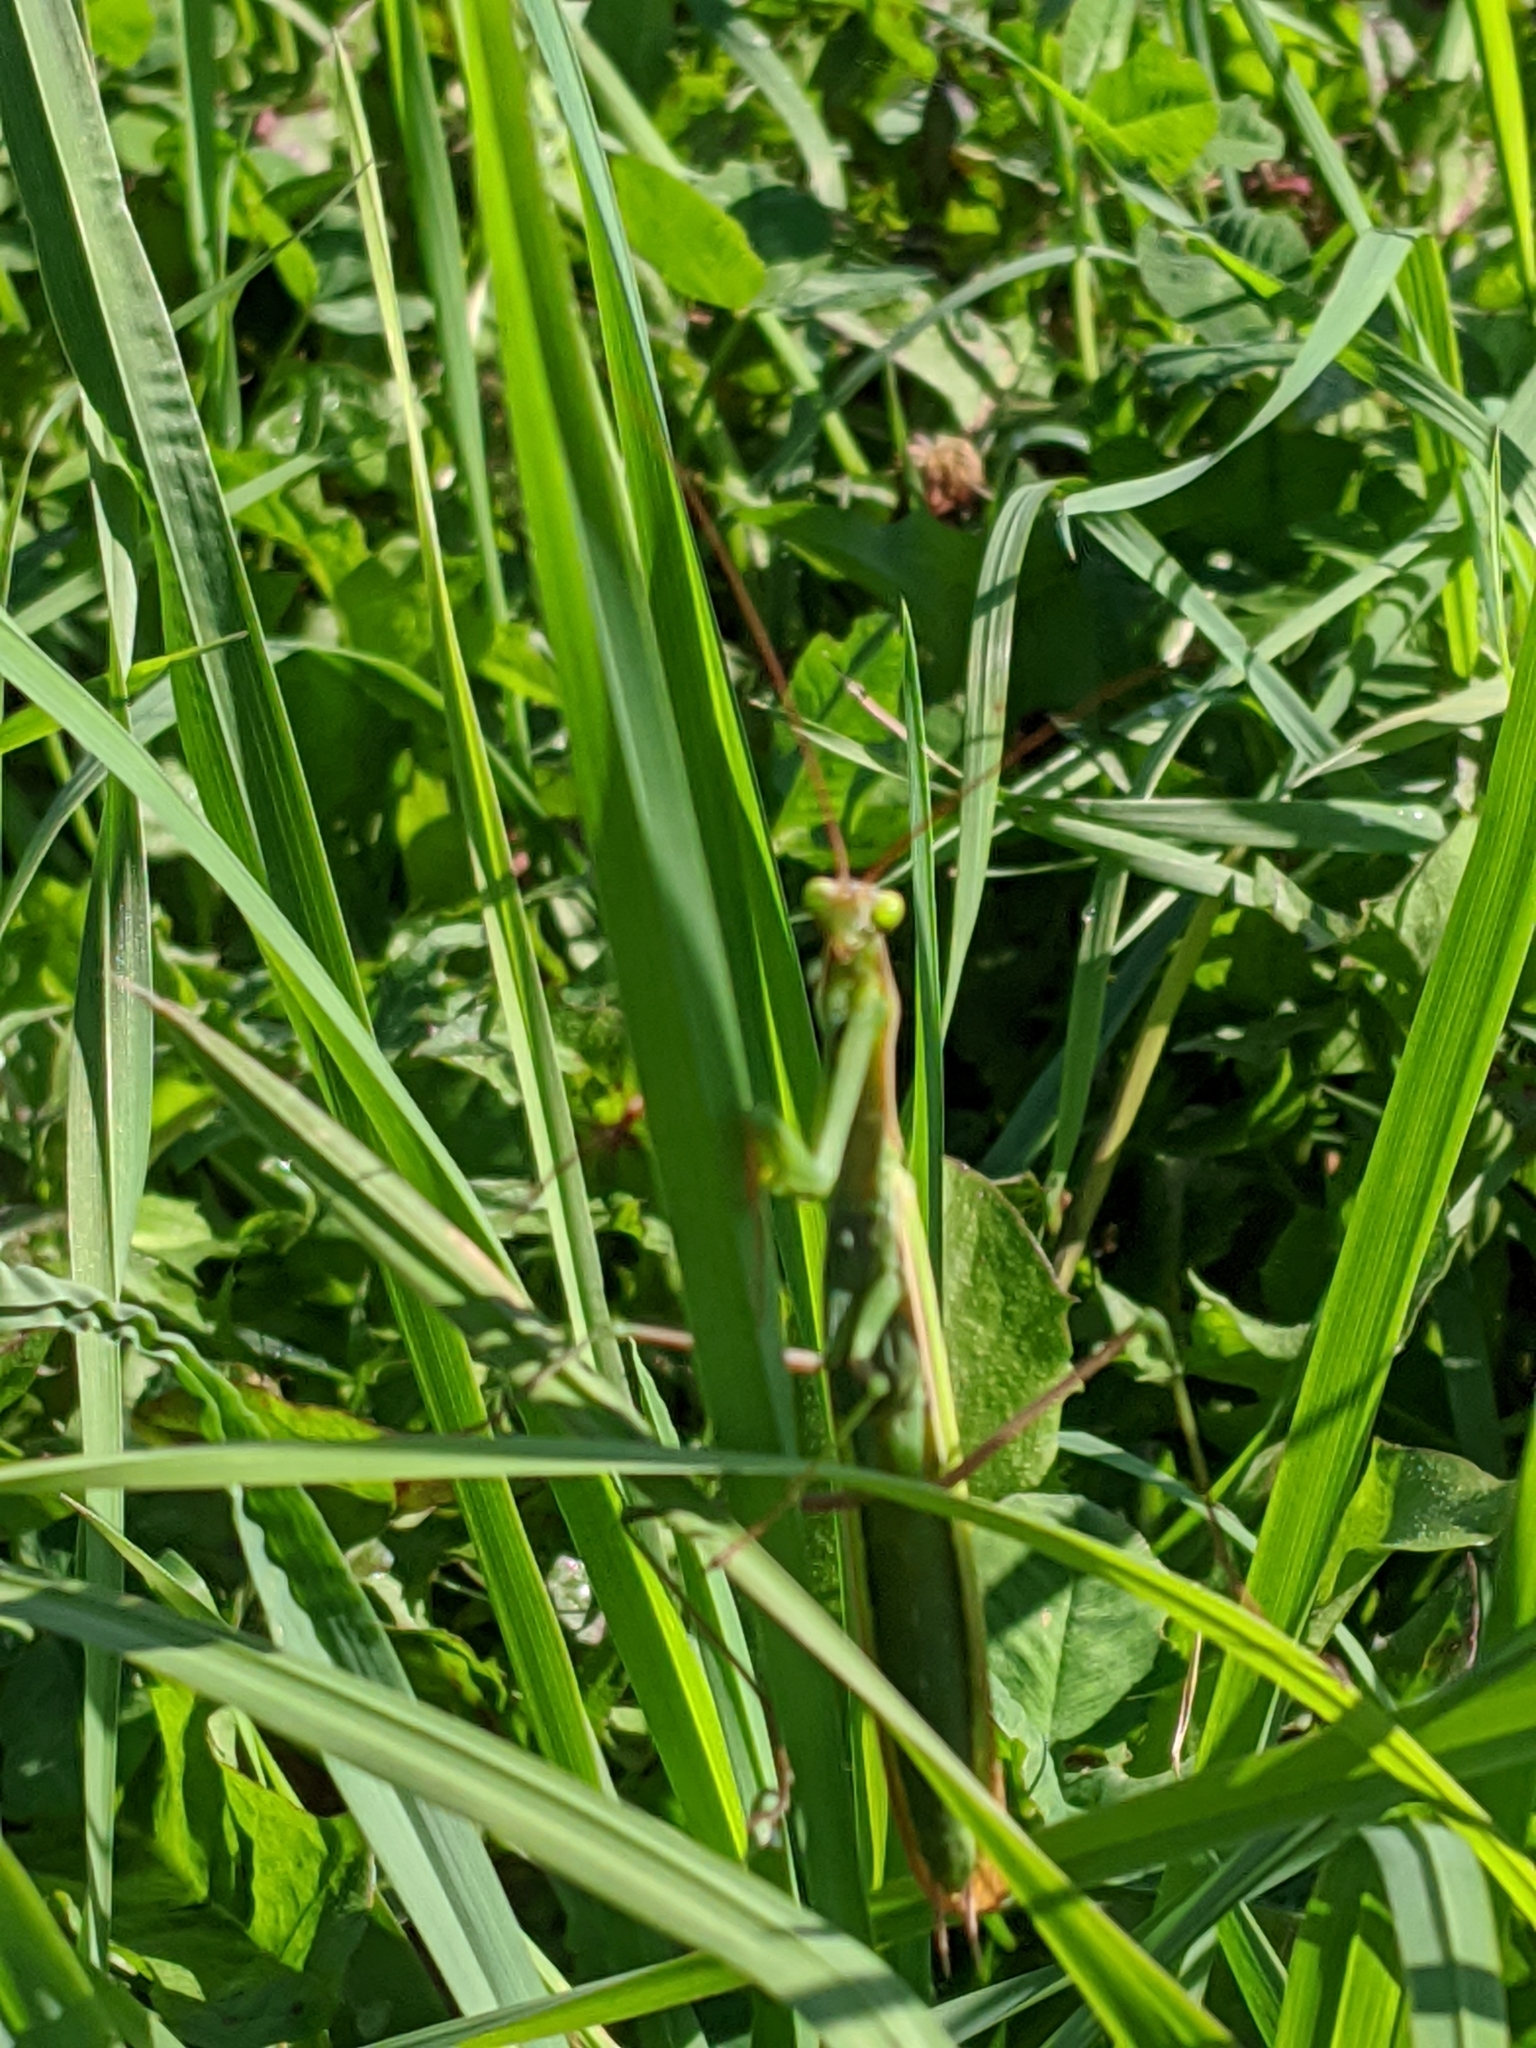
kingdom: Animalia
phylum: Arthropoda
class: Insecta
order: Mantodea
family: Mantidae
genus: Mantis
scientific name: Mantis religiosa
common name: Praying mantis
